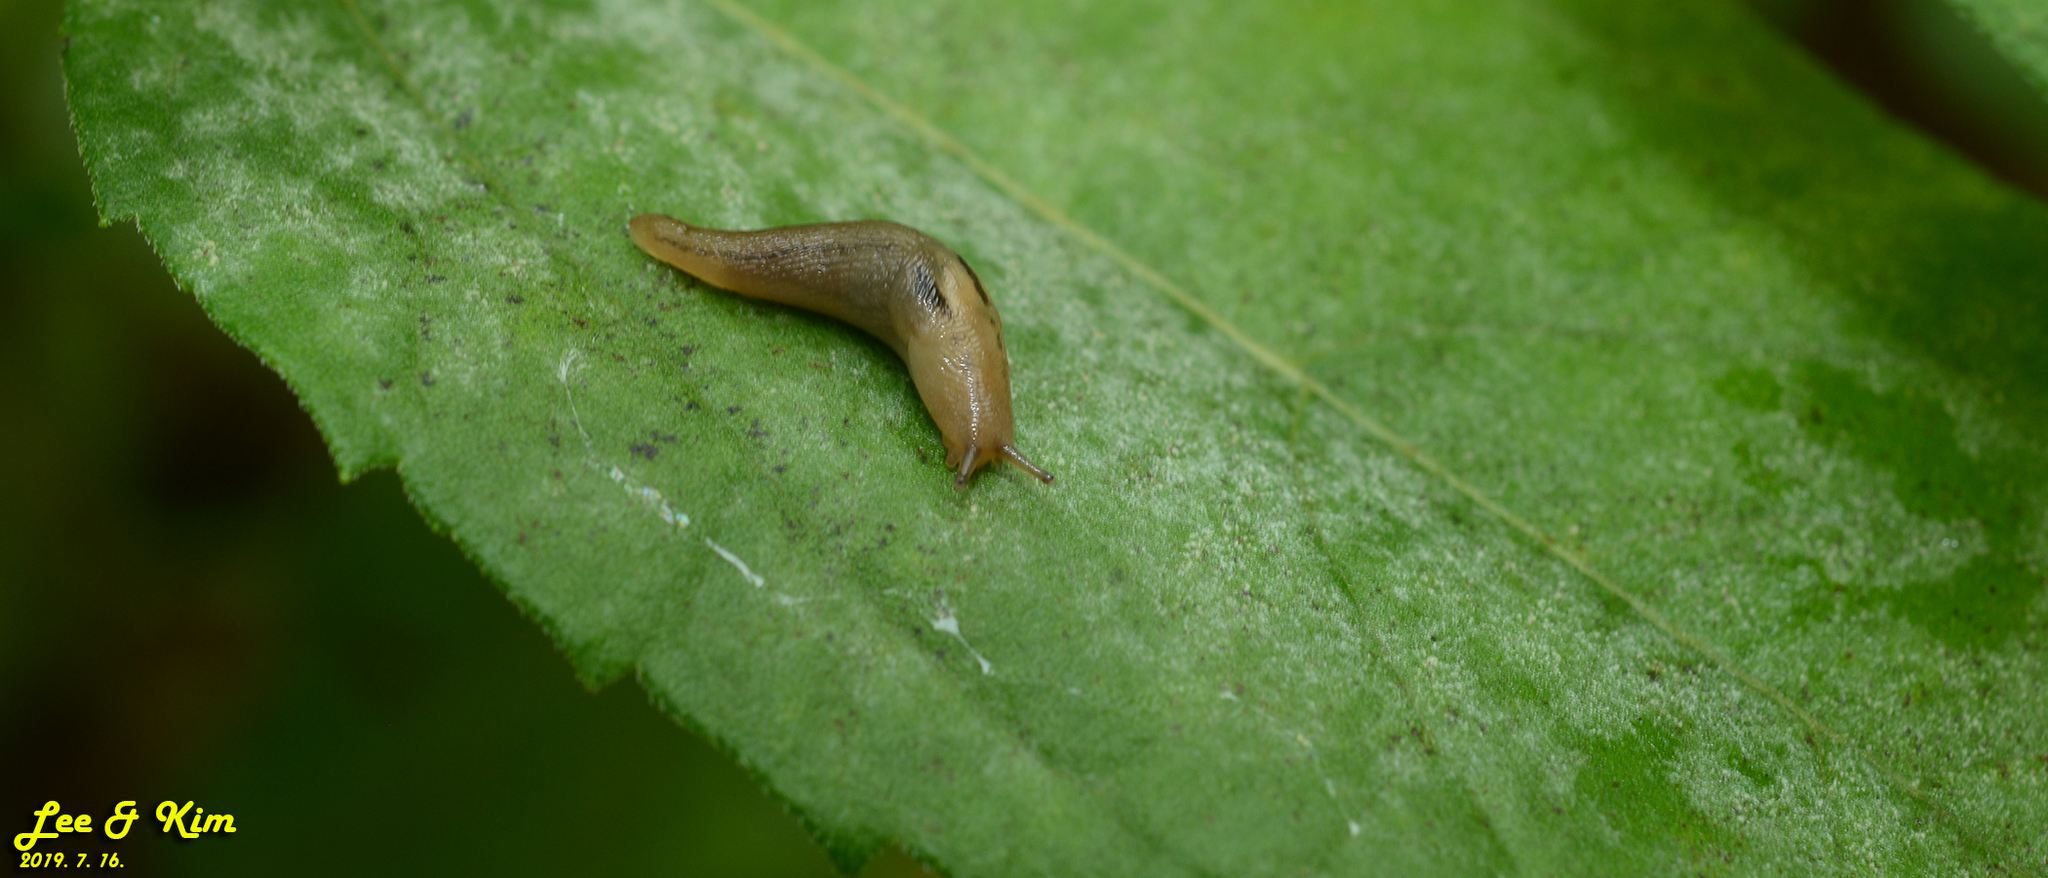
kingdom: Animalia
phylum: Mollusca
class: Gastropoda
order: Stylommatophora
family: Limacidae
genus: Ambigolimax
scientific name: Ambigolimax valentianus
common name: Greenhouse slug
